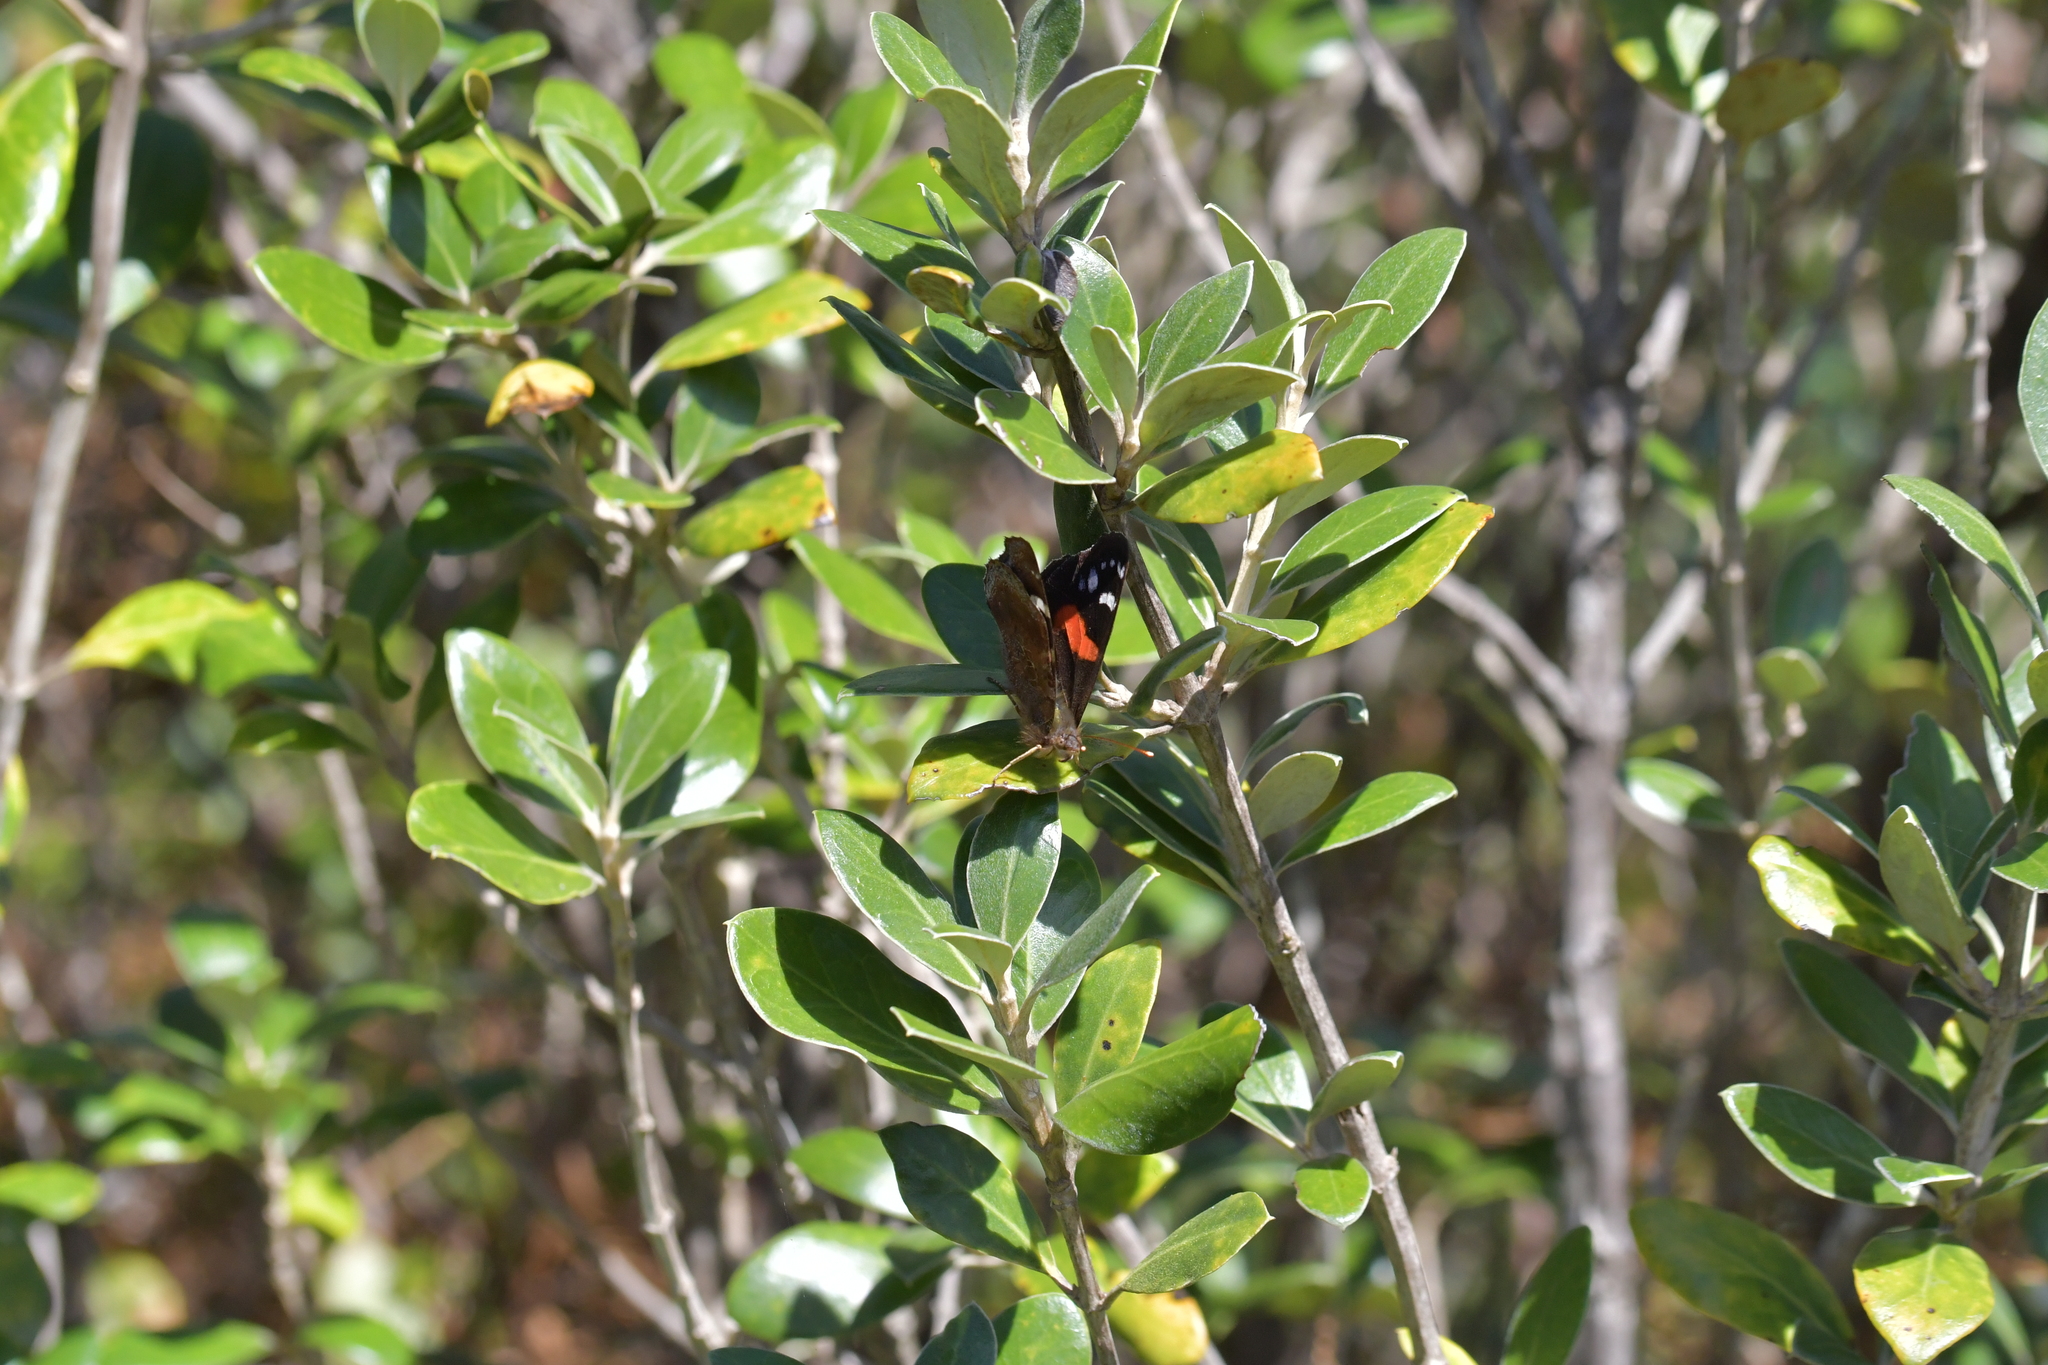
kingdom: Animalia
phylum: Arthropoda
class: Insecta
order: Lepidoptera
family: Nymphalidae
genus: Vanessa
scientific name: Vanessa gonerilla
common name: New zealand red admiral
